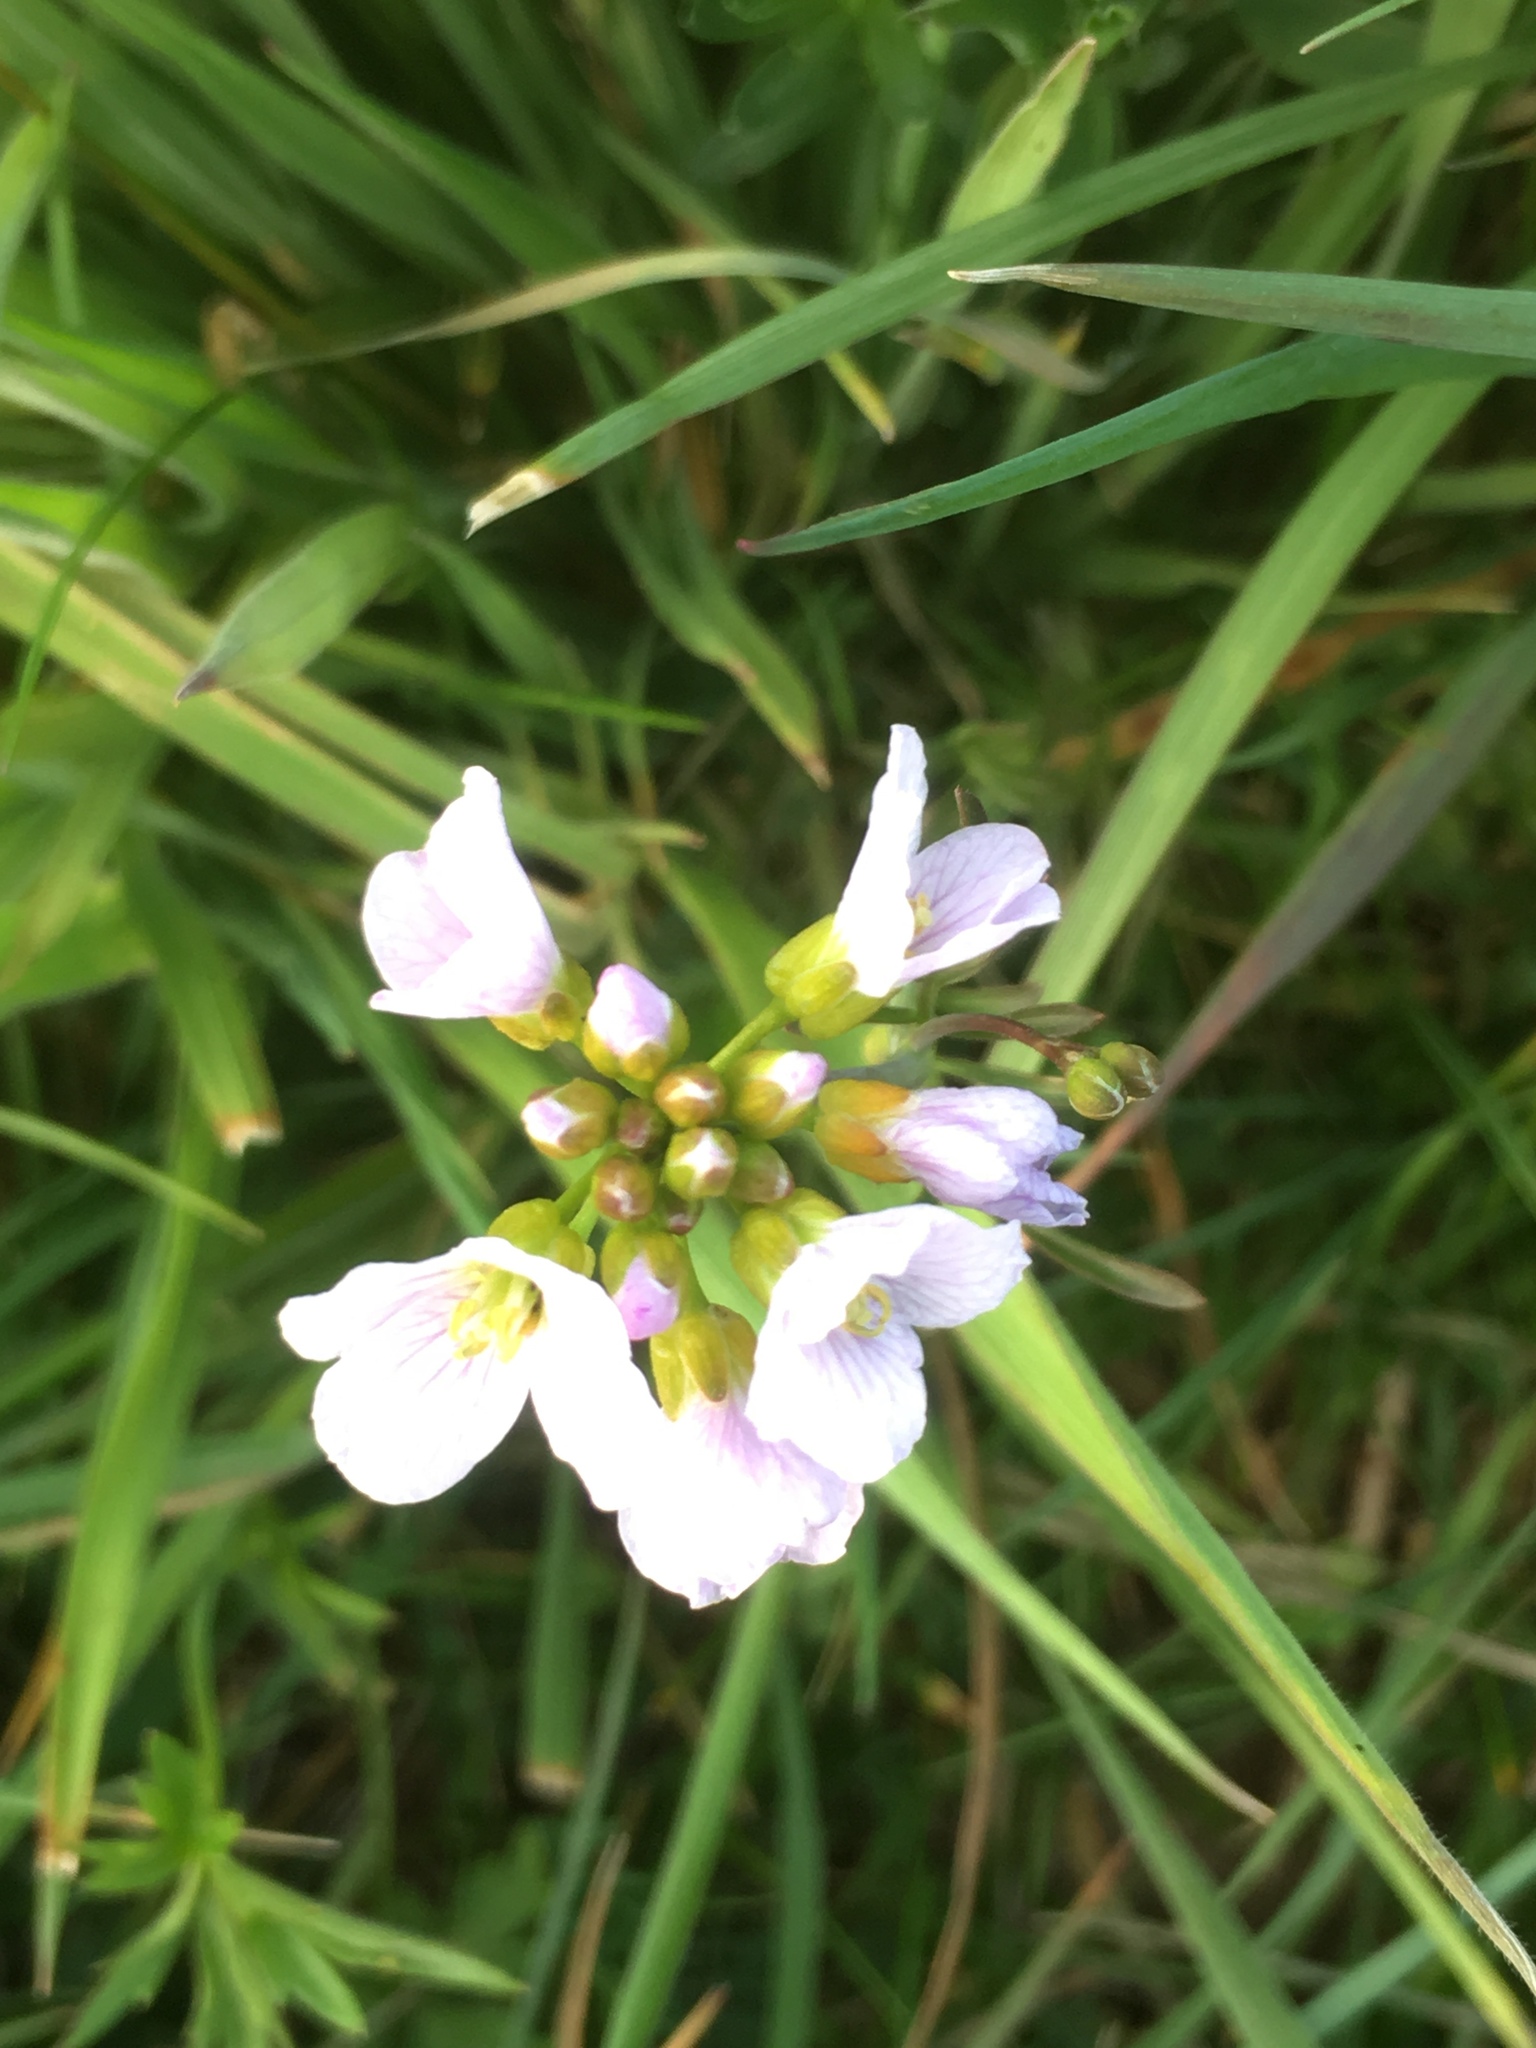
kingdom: Plantae
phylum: Tracheophyta
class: Magnoliopsida
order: Brassicales
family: Brassicaceae
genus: Cardamine
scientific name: Cardamine pratensis
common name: Cuckoo flower
